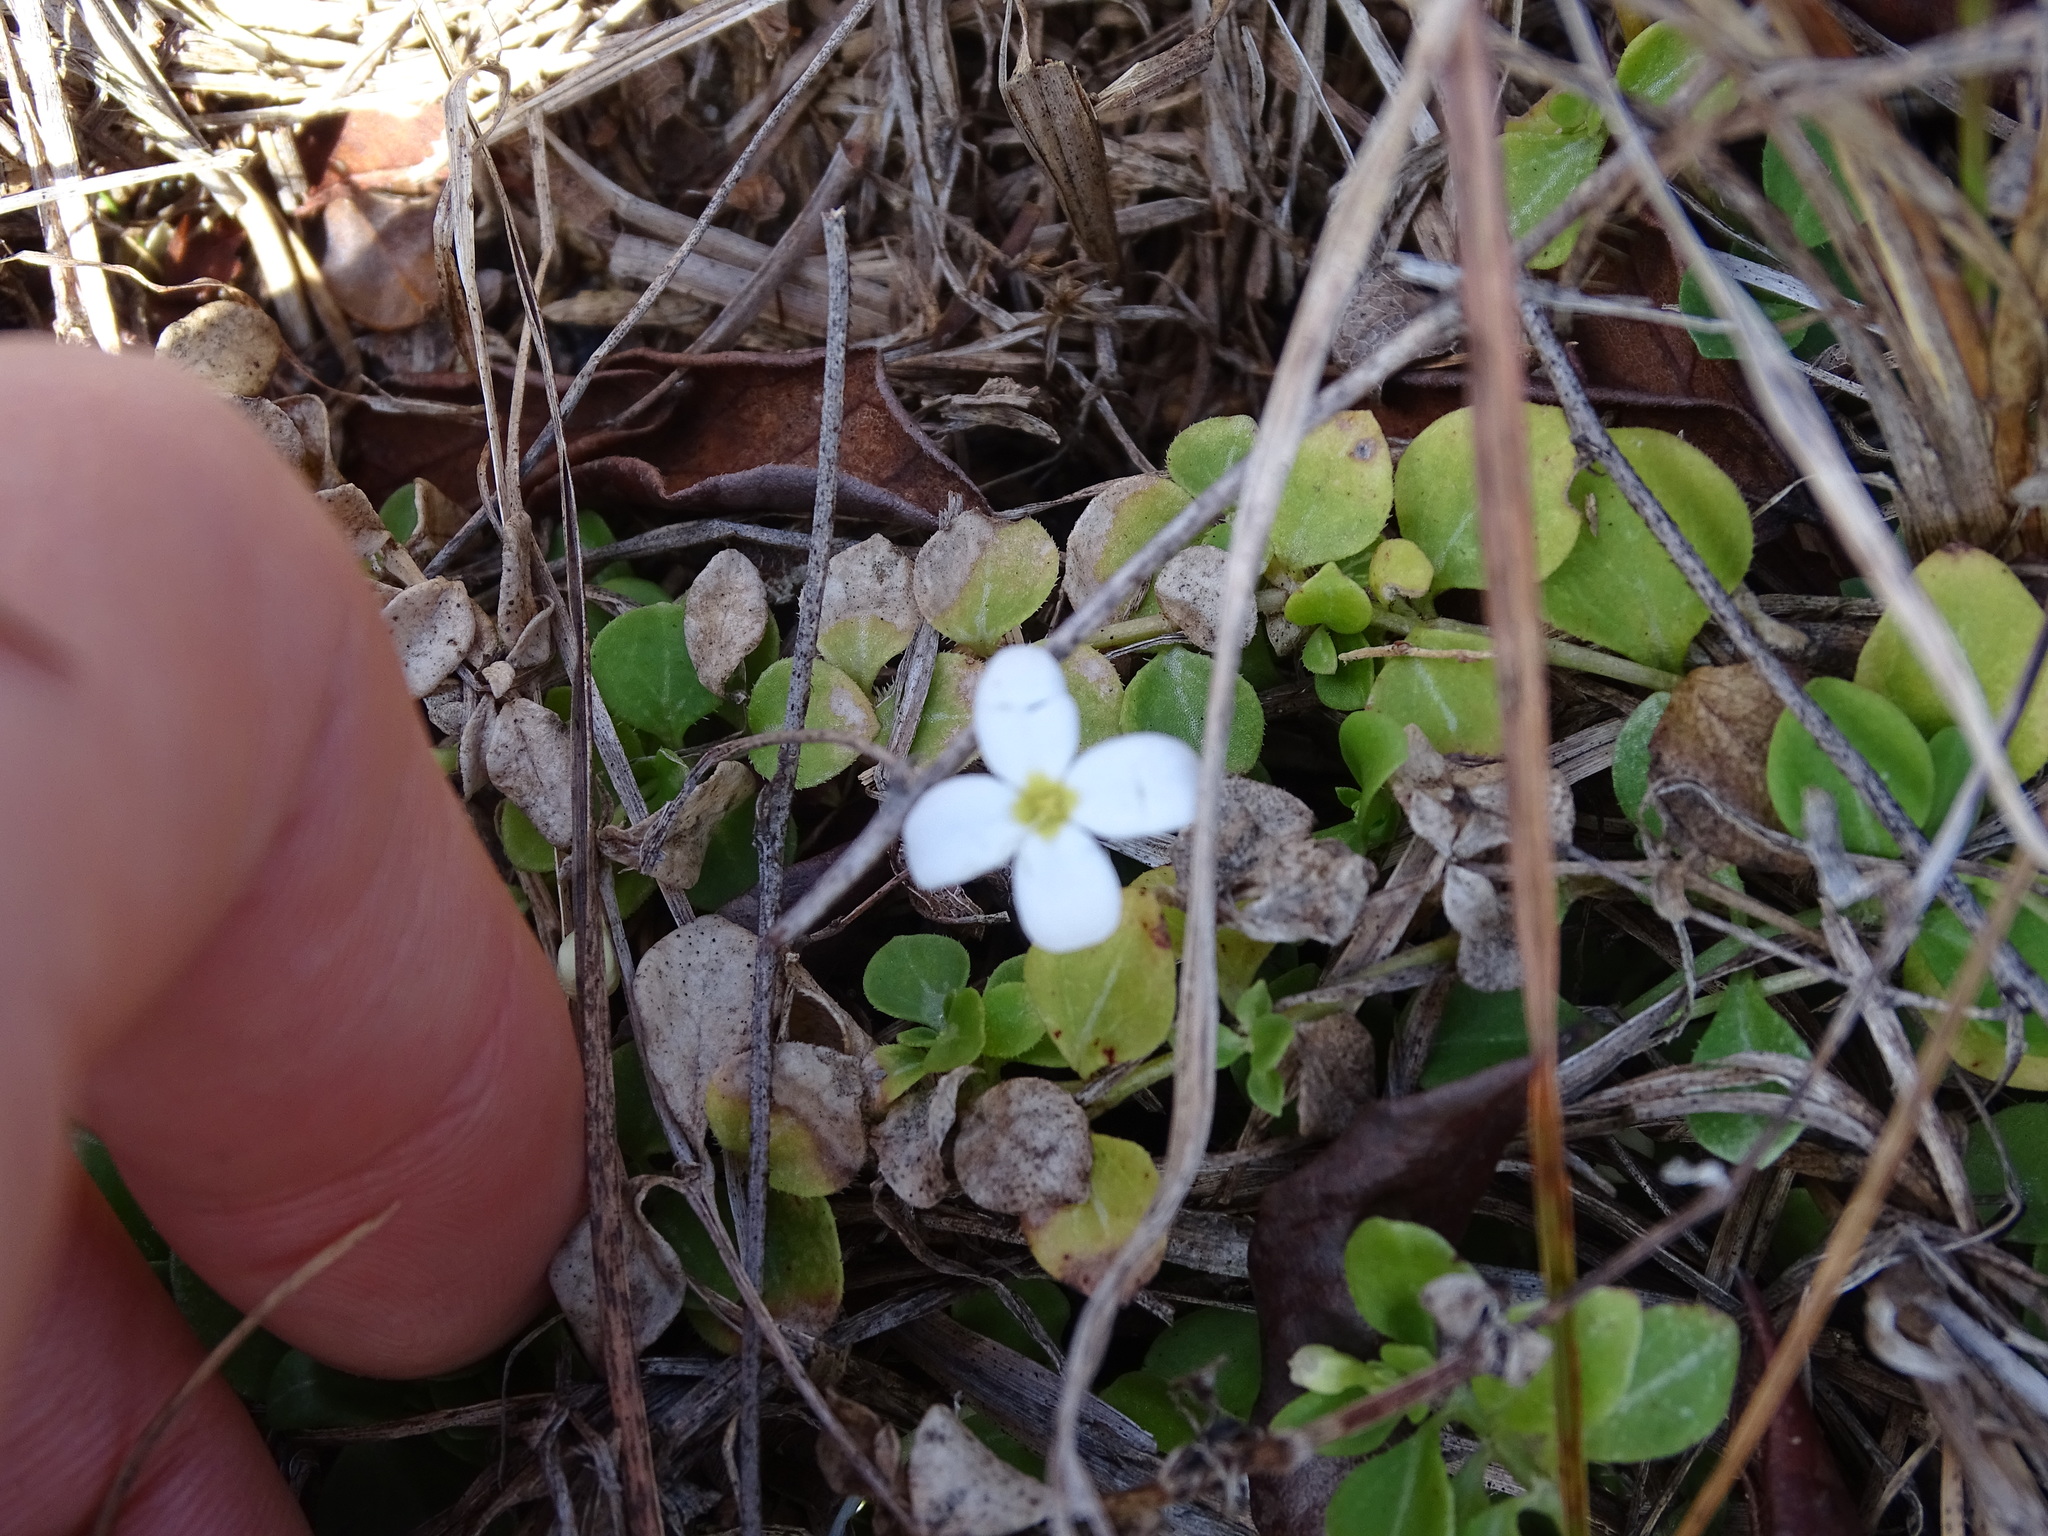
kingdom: Plantae
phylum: Tracheophyta
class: Magnoliopsida
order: Gentianales
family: Rubiaceae
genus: Houstonia
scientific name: Houstonia procumbens
